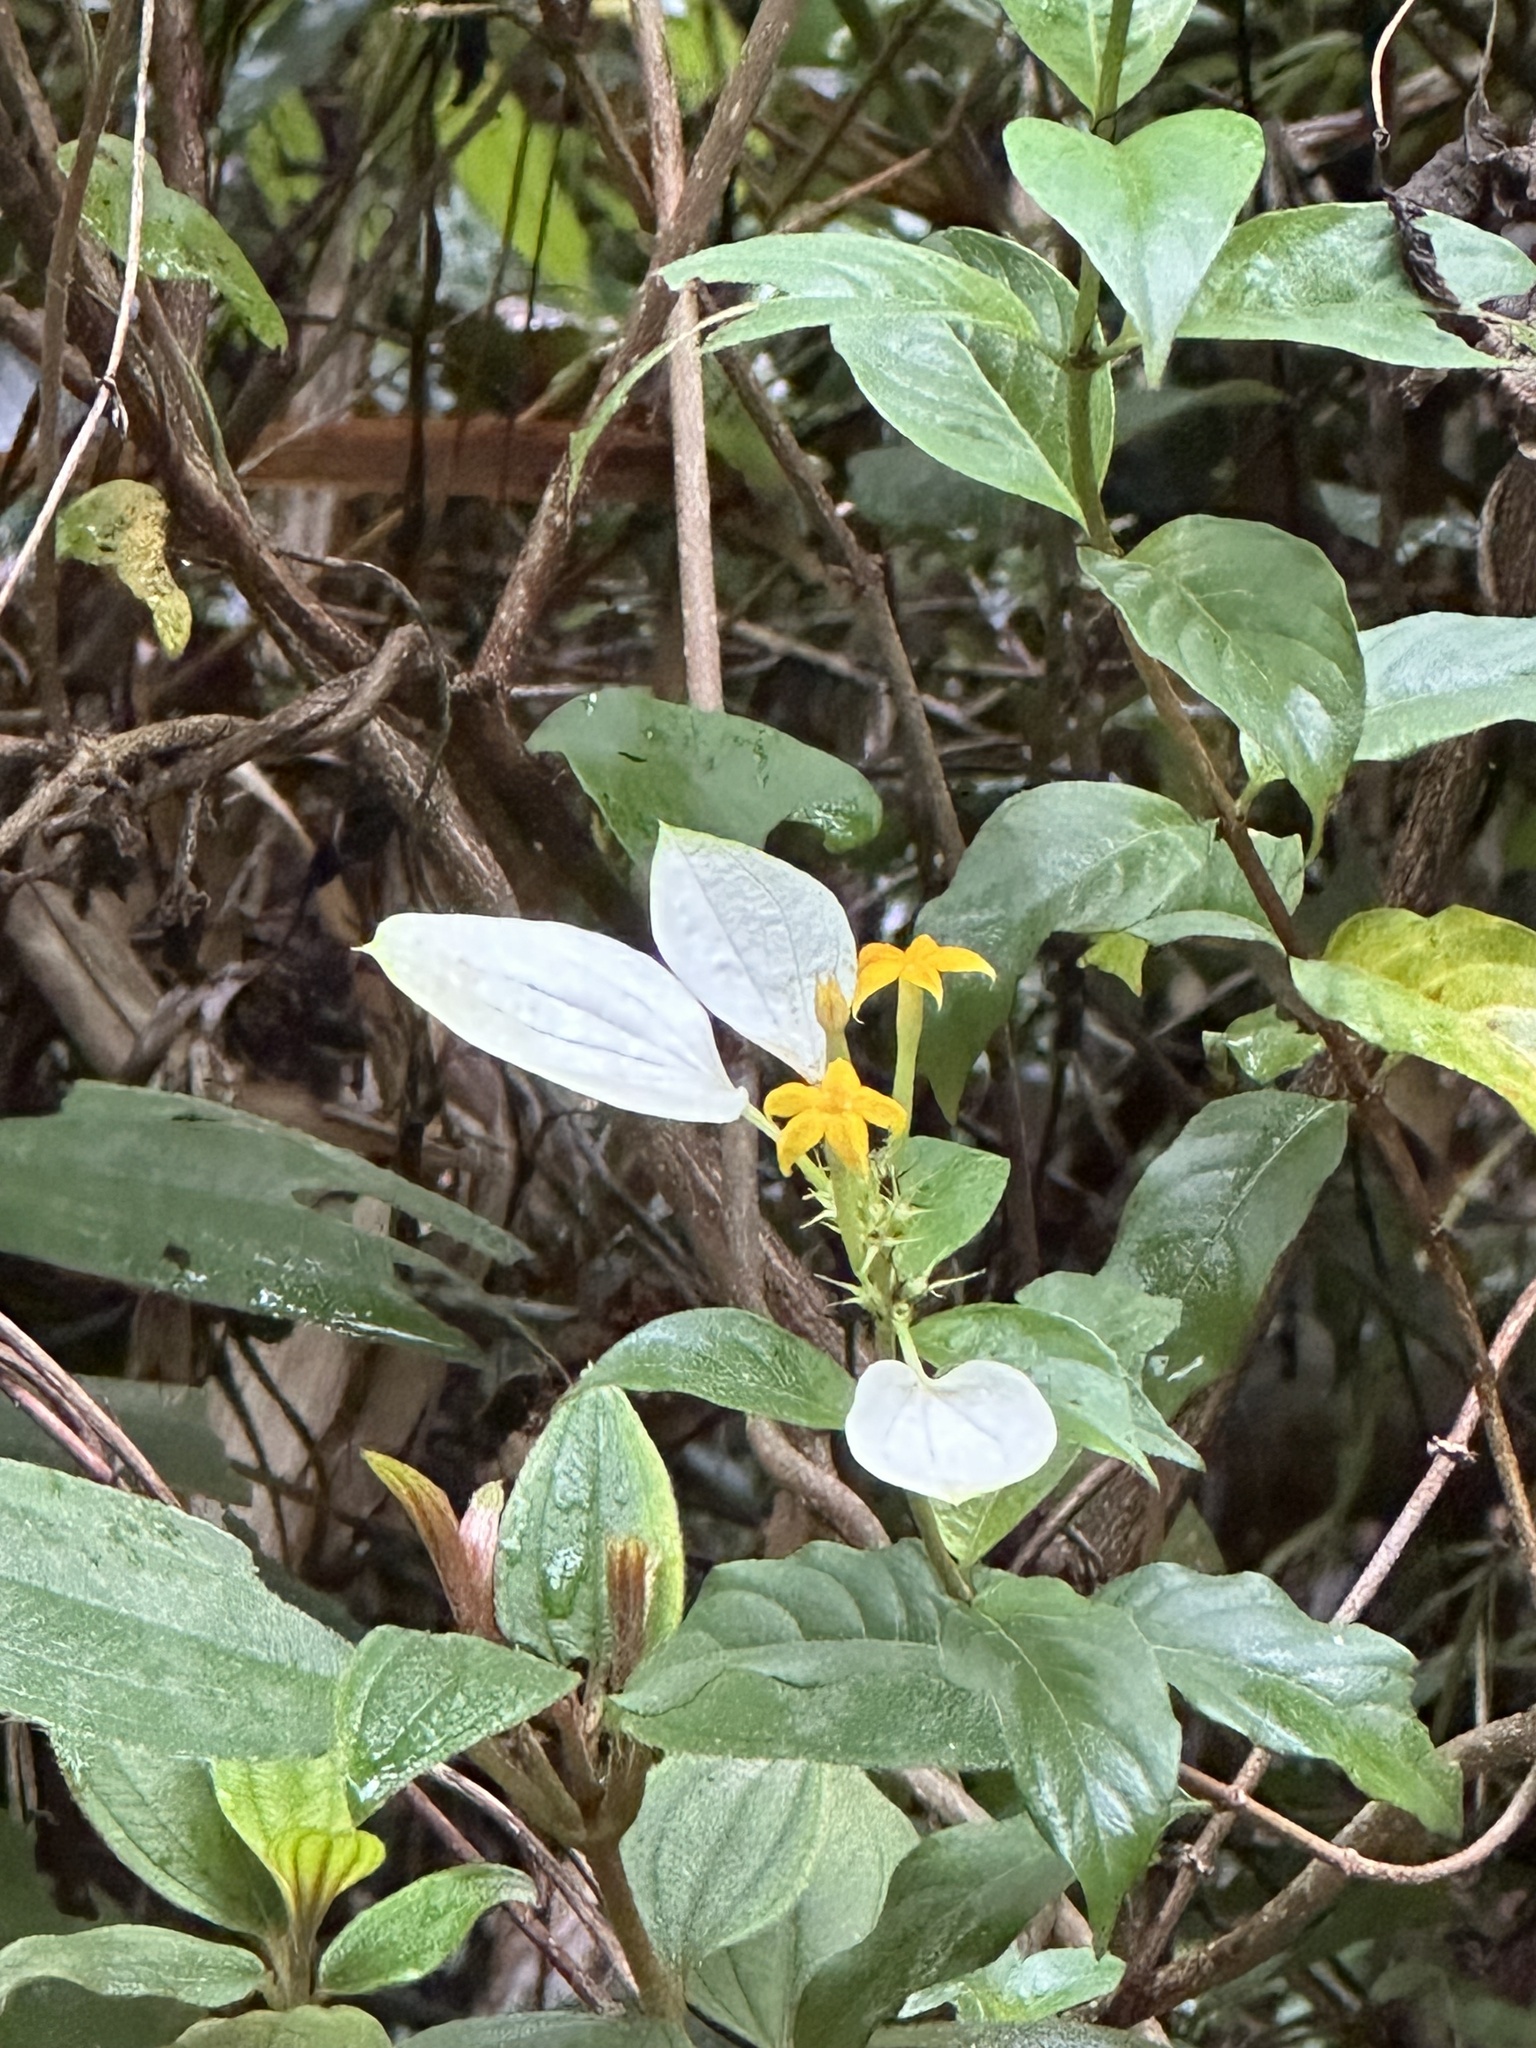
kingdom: Plantae
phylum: Tracheophyta
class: Magnoliopsida
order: Gentianales
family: Rubiaceae
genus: Mussaenda
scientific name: Mussaenda formosana
